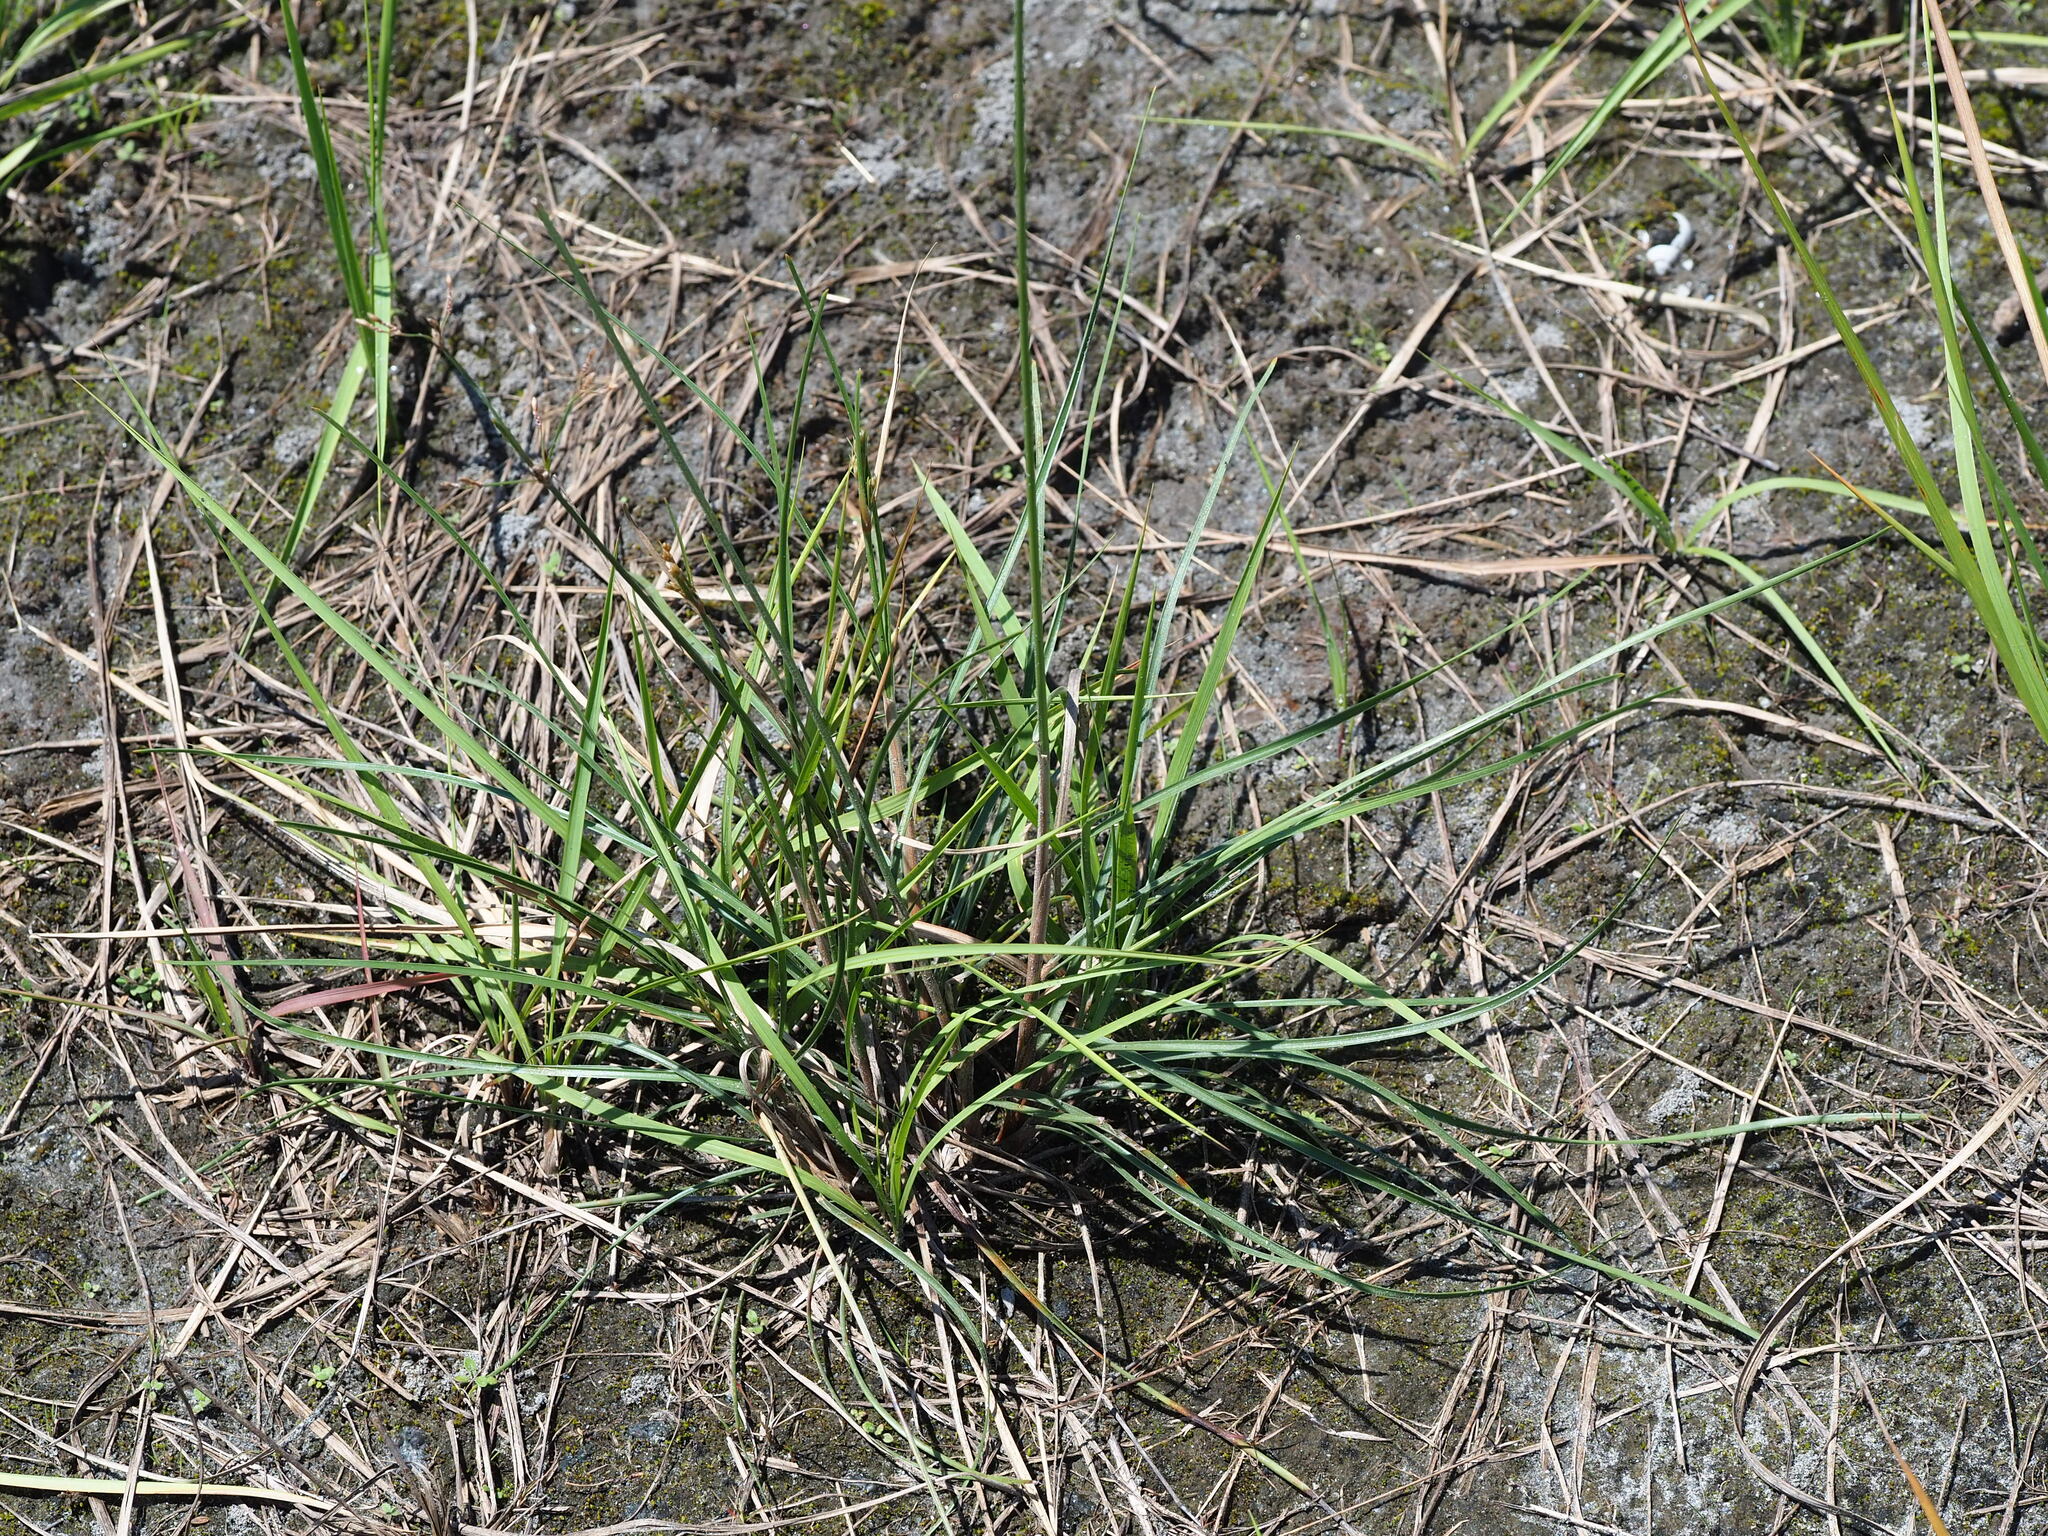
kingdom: Plantae
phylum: Tracheophyta
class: Liliopsida
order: Poales
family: Cyperaceae
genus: Fimbristylis
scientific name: Fimbristylis subinclinata
